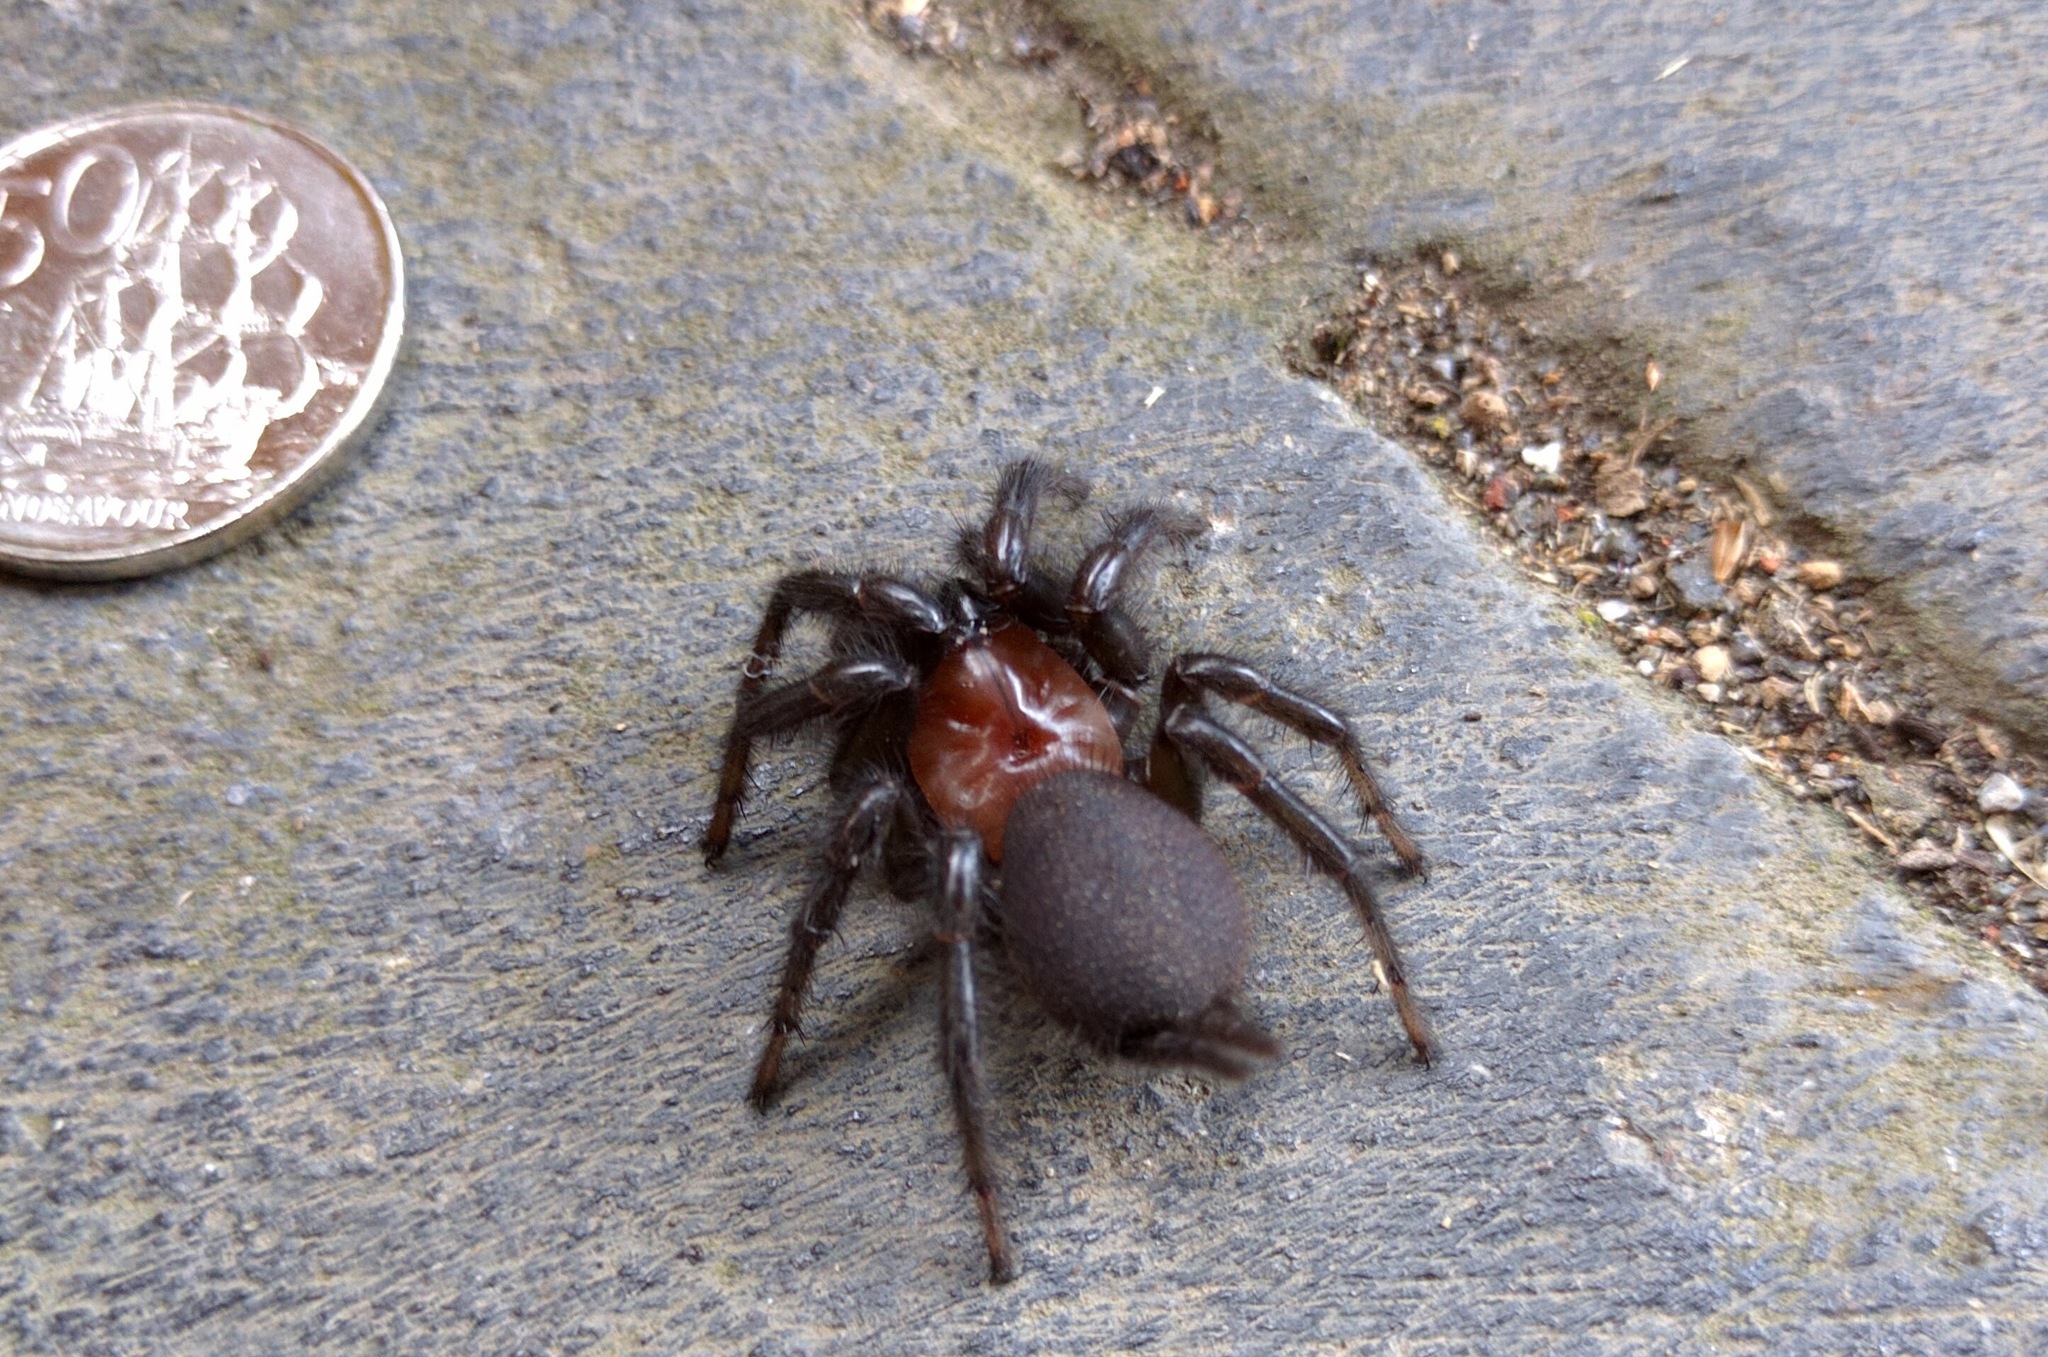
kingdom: Animalia
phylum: Arthropoda
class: Arachnida
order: Araneae
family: Porrhothelidae
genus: Porrhothele
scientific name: Porrhothele antipodiana
